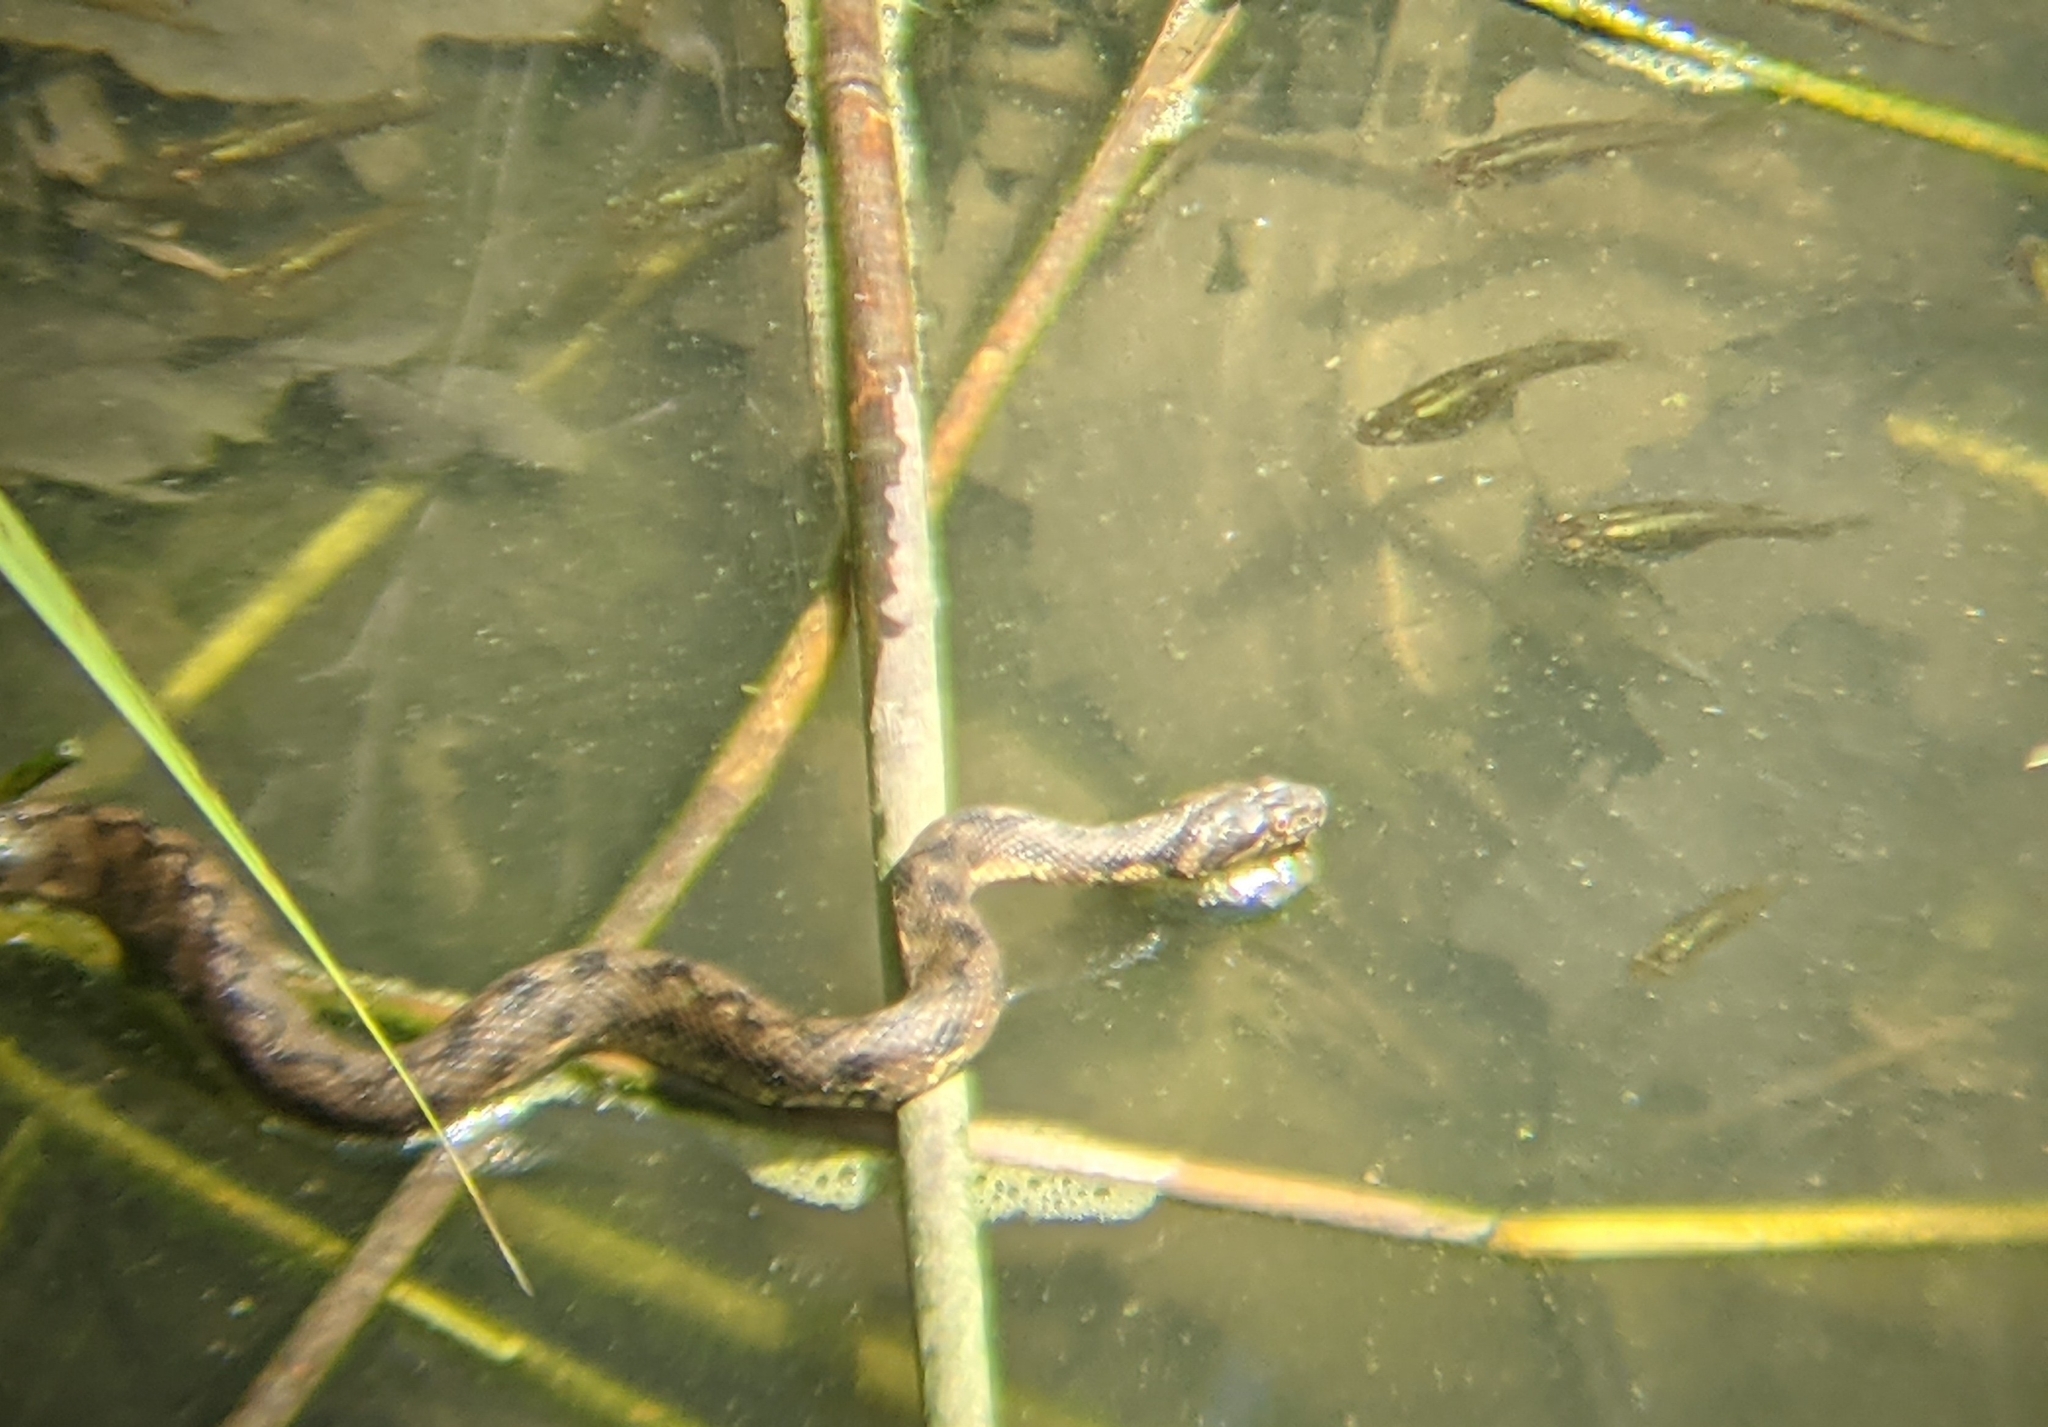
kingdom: Animalia
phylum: Chordata
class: Squamata
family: Colubridae
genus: Natrix
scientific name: Natrix maura
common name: Viperine water snake
